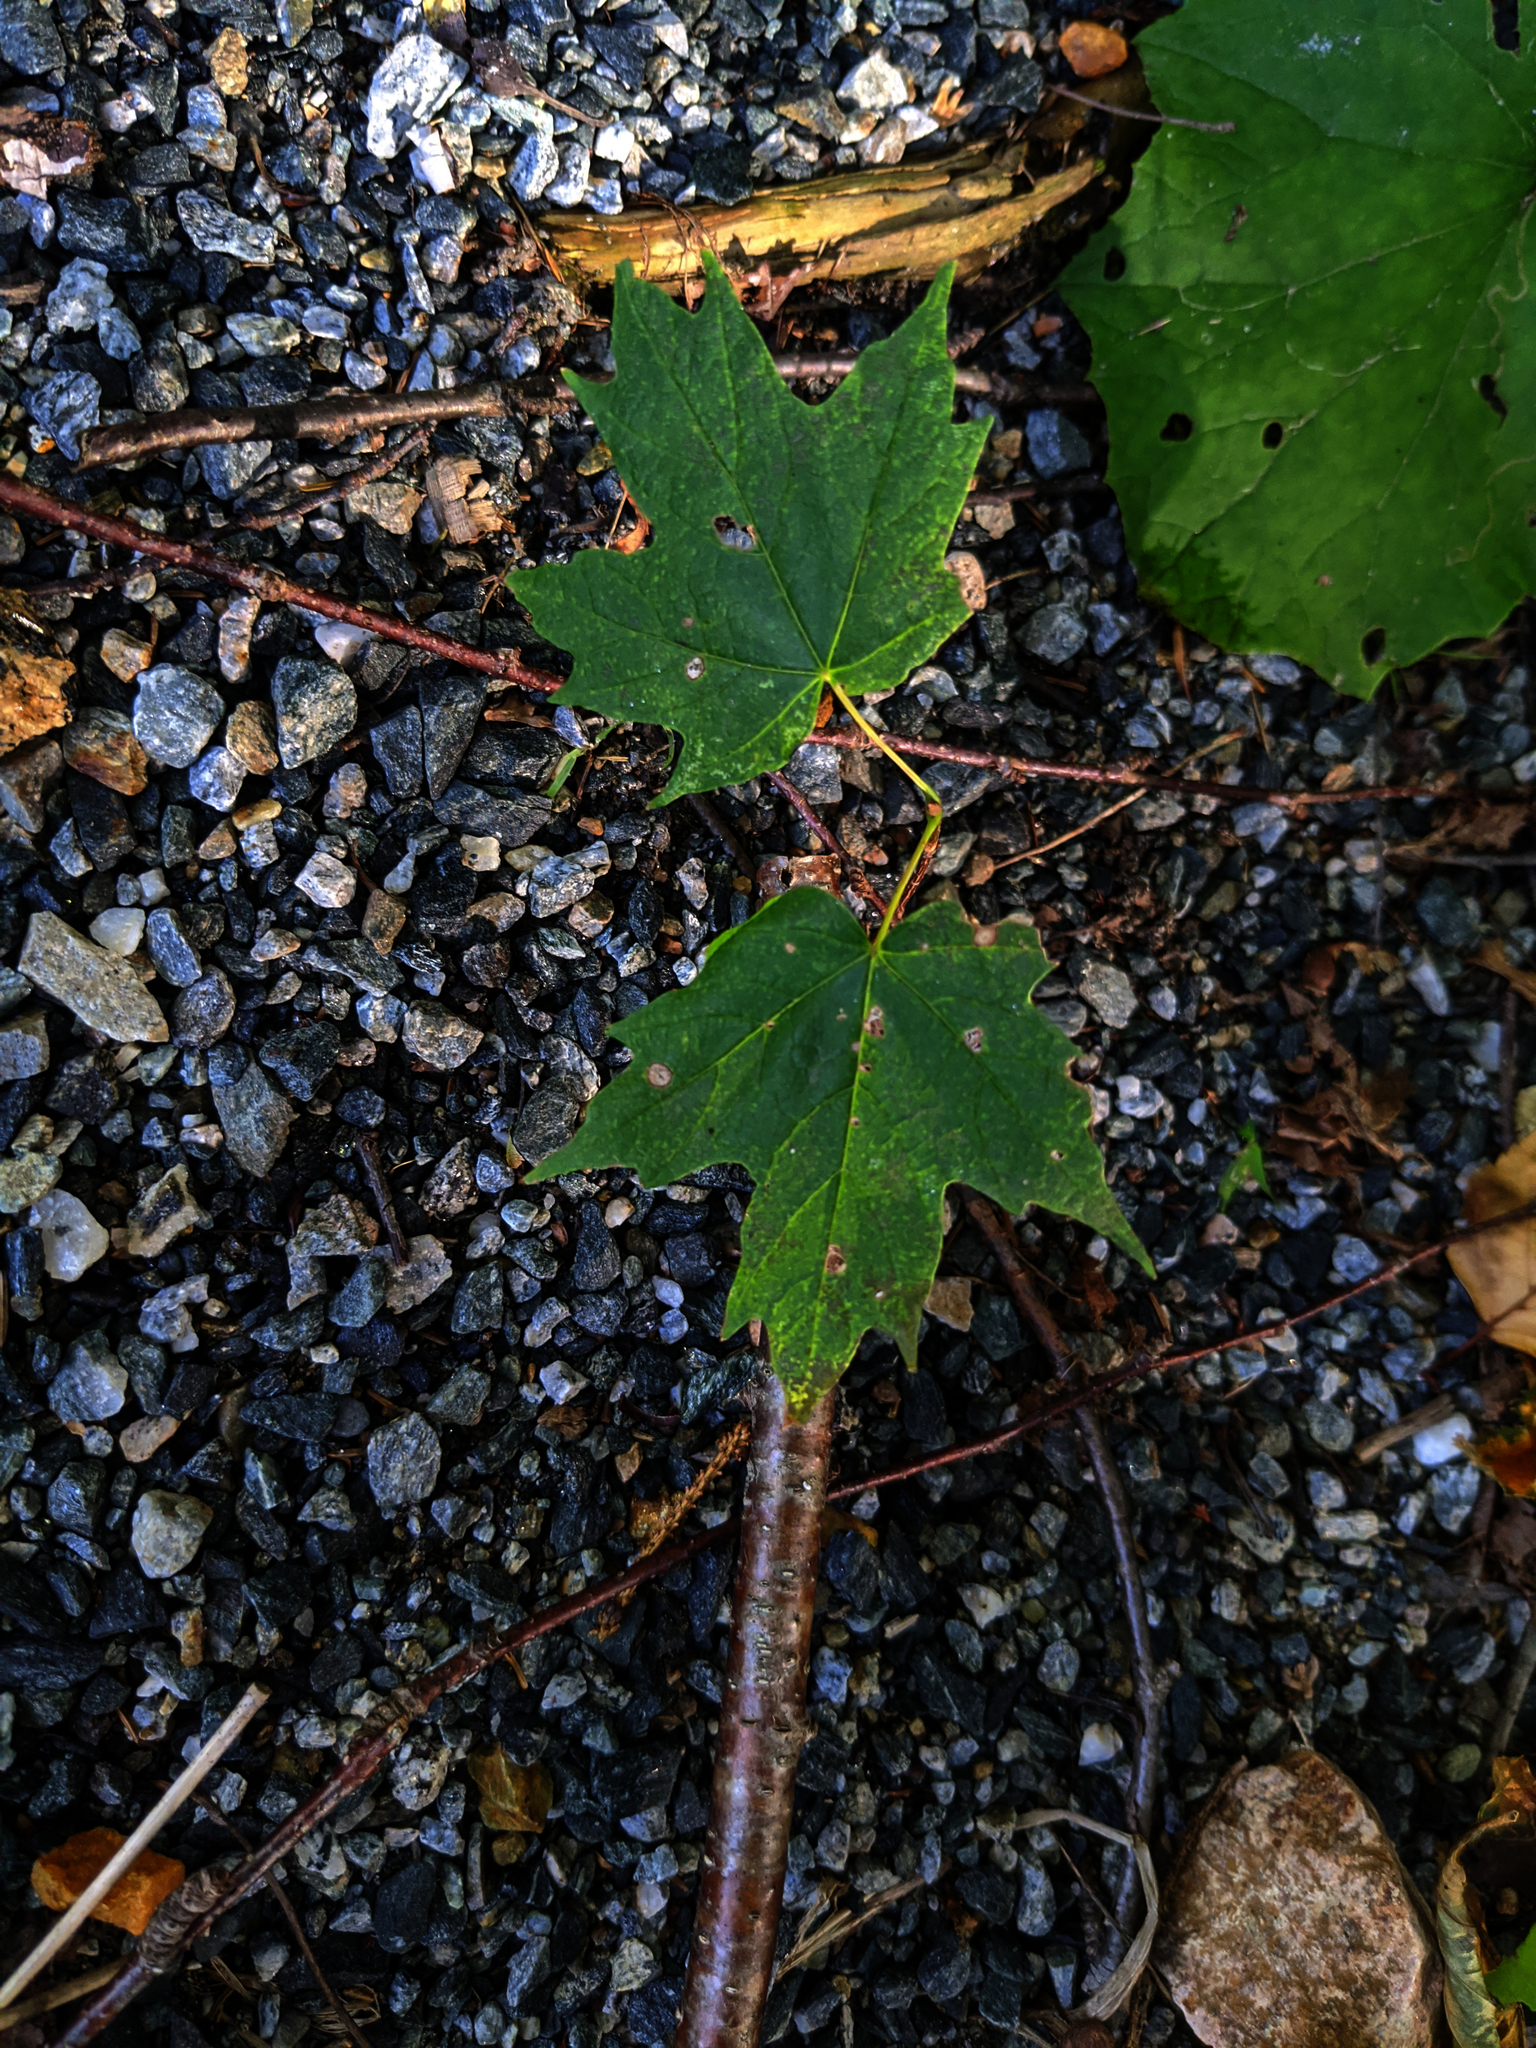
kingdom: Plantae
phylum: Tracheophyta
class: Magnoliopsida
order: Sapindales
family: Sapindaceae
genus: Acer
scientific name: Acer saccharum
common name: Sugar maple
